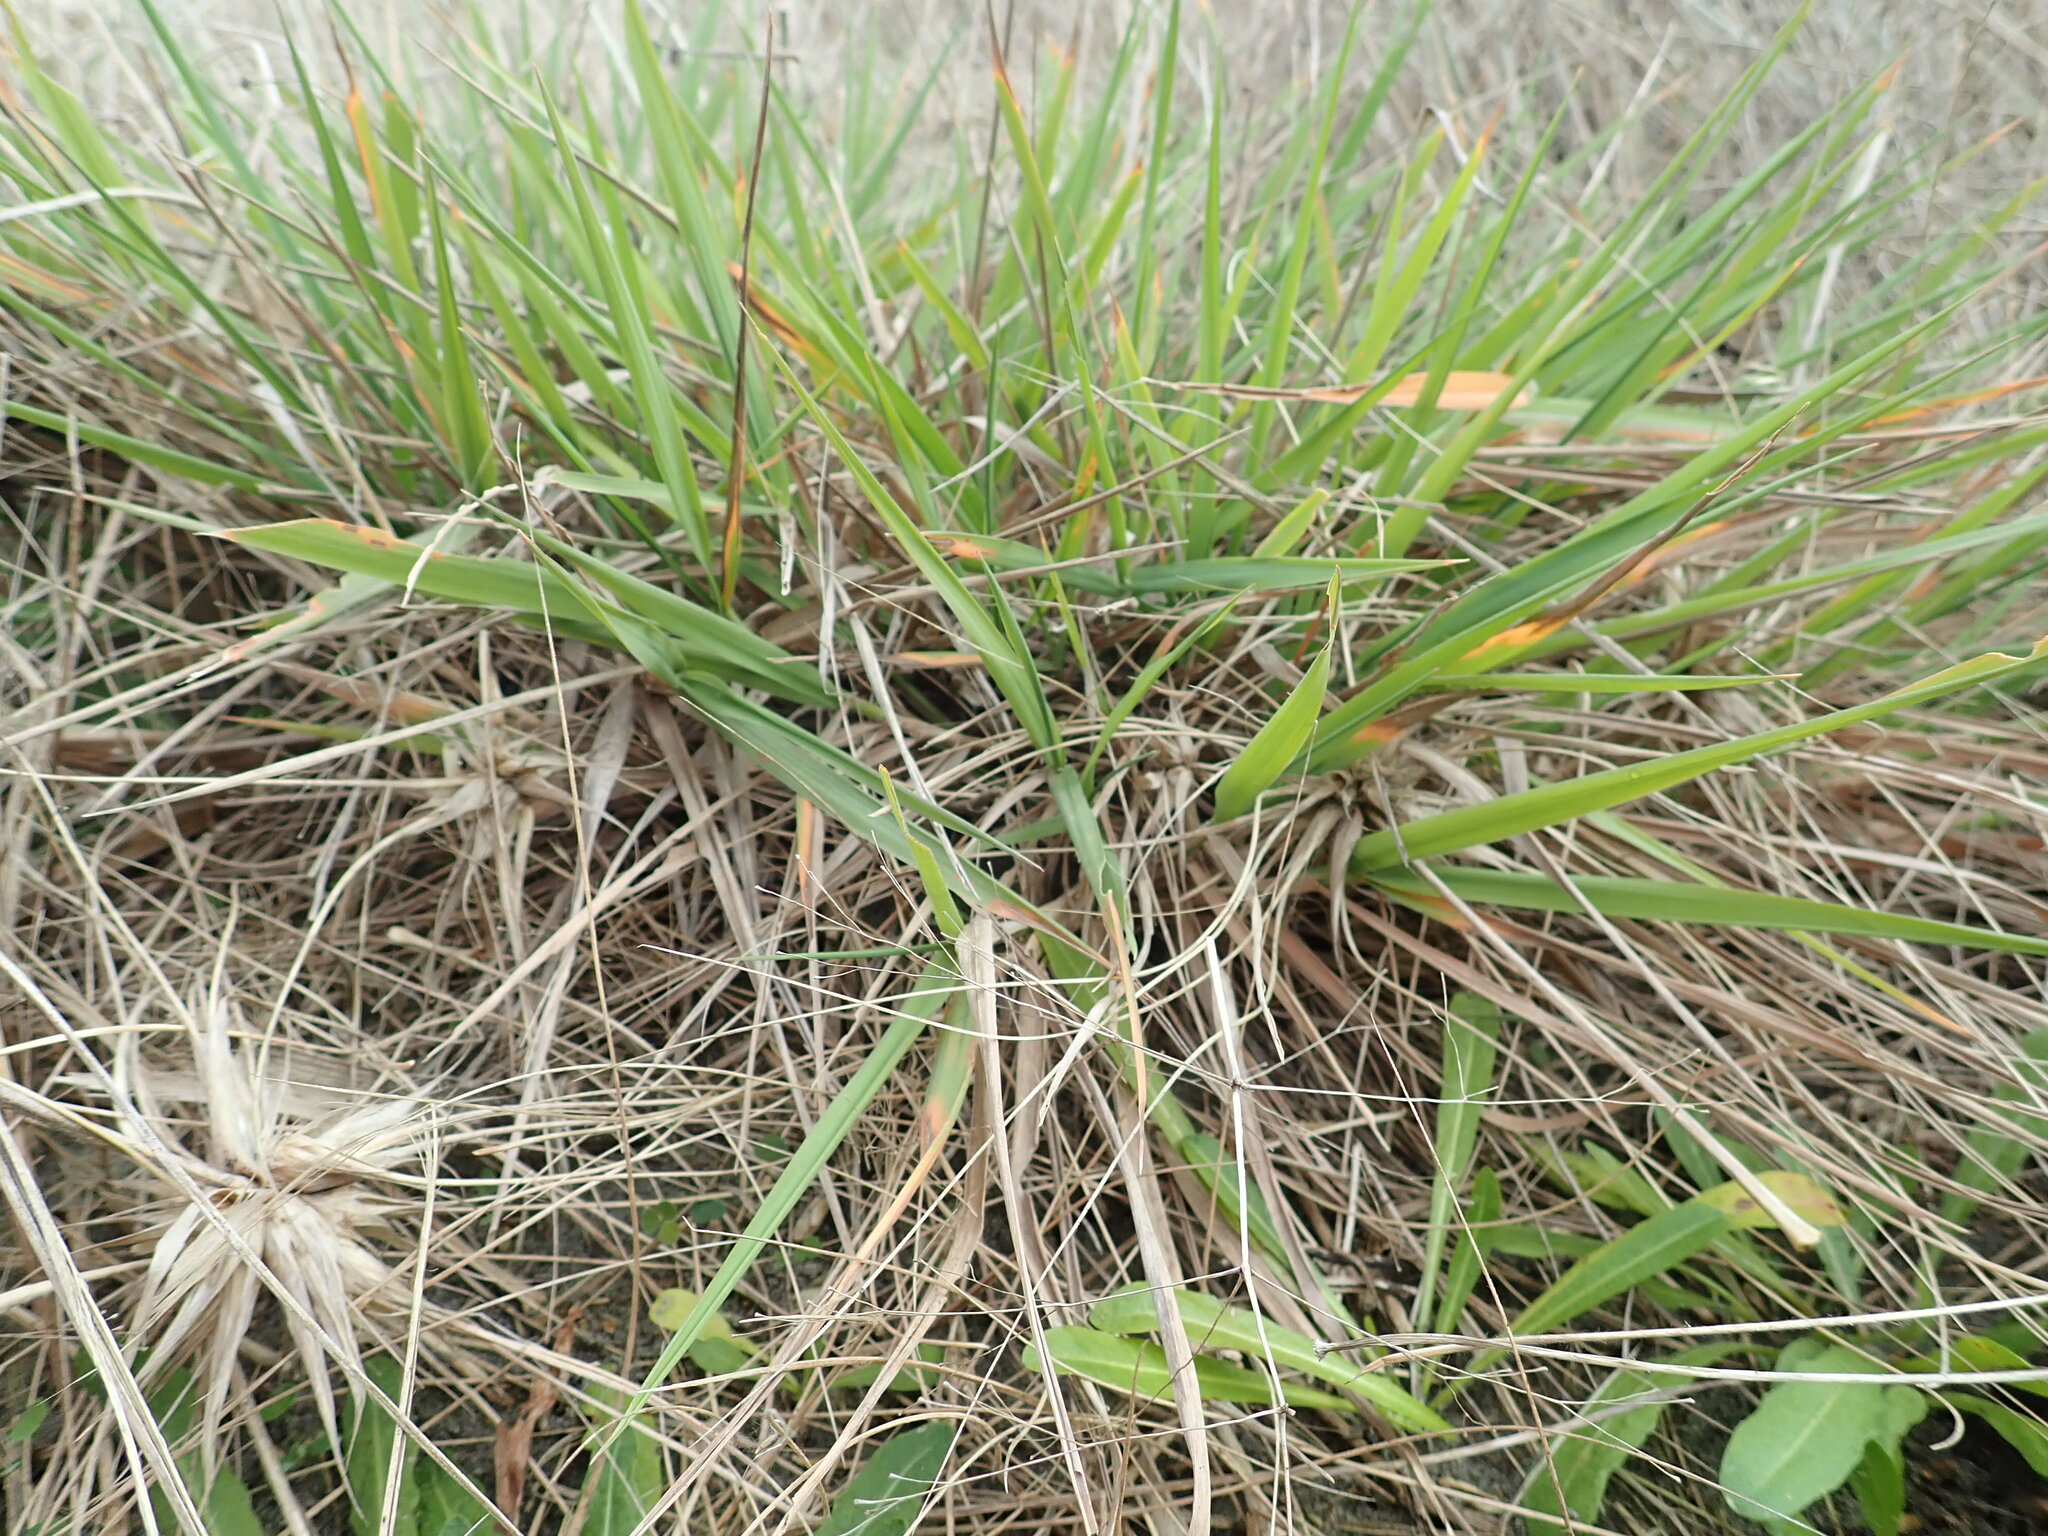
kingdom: Plantae
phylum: Tracheophyta
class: Liliopsida
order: Poales
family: Poaceae
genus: Lachnagrostis
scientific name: Lachnagrostis billardierei
